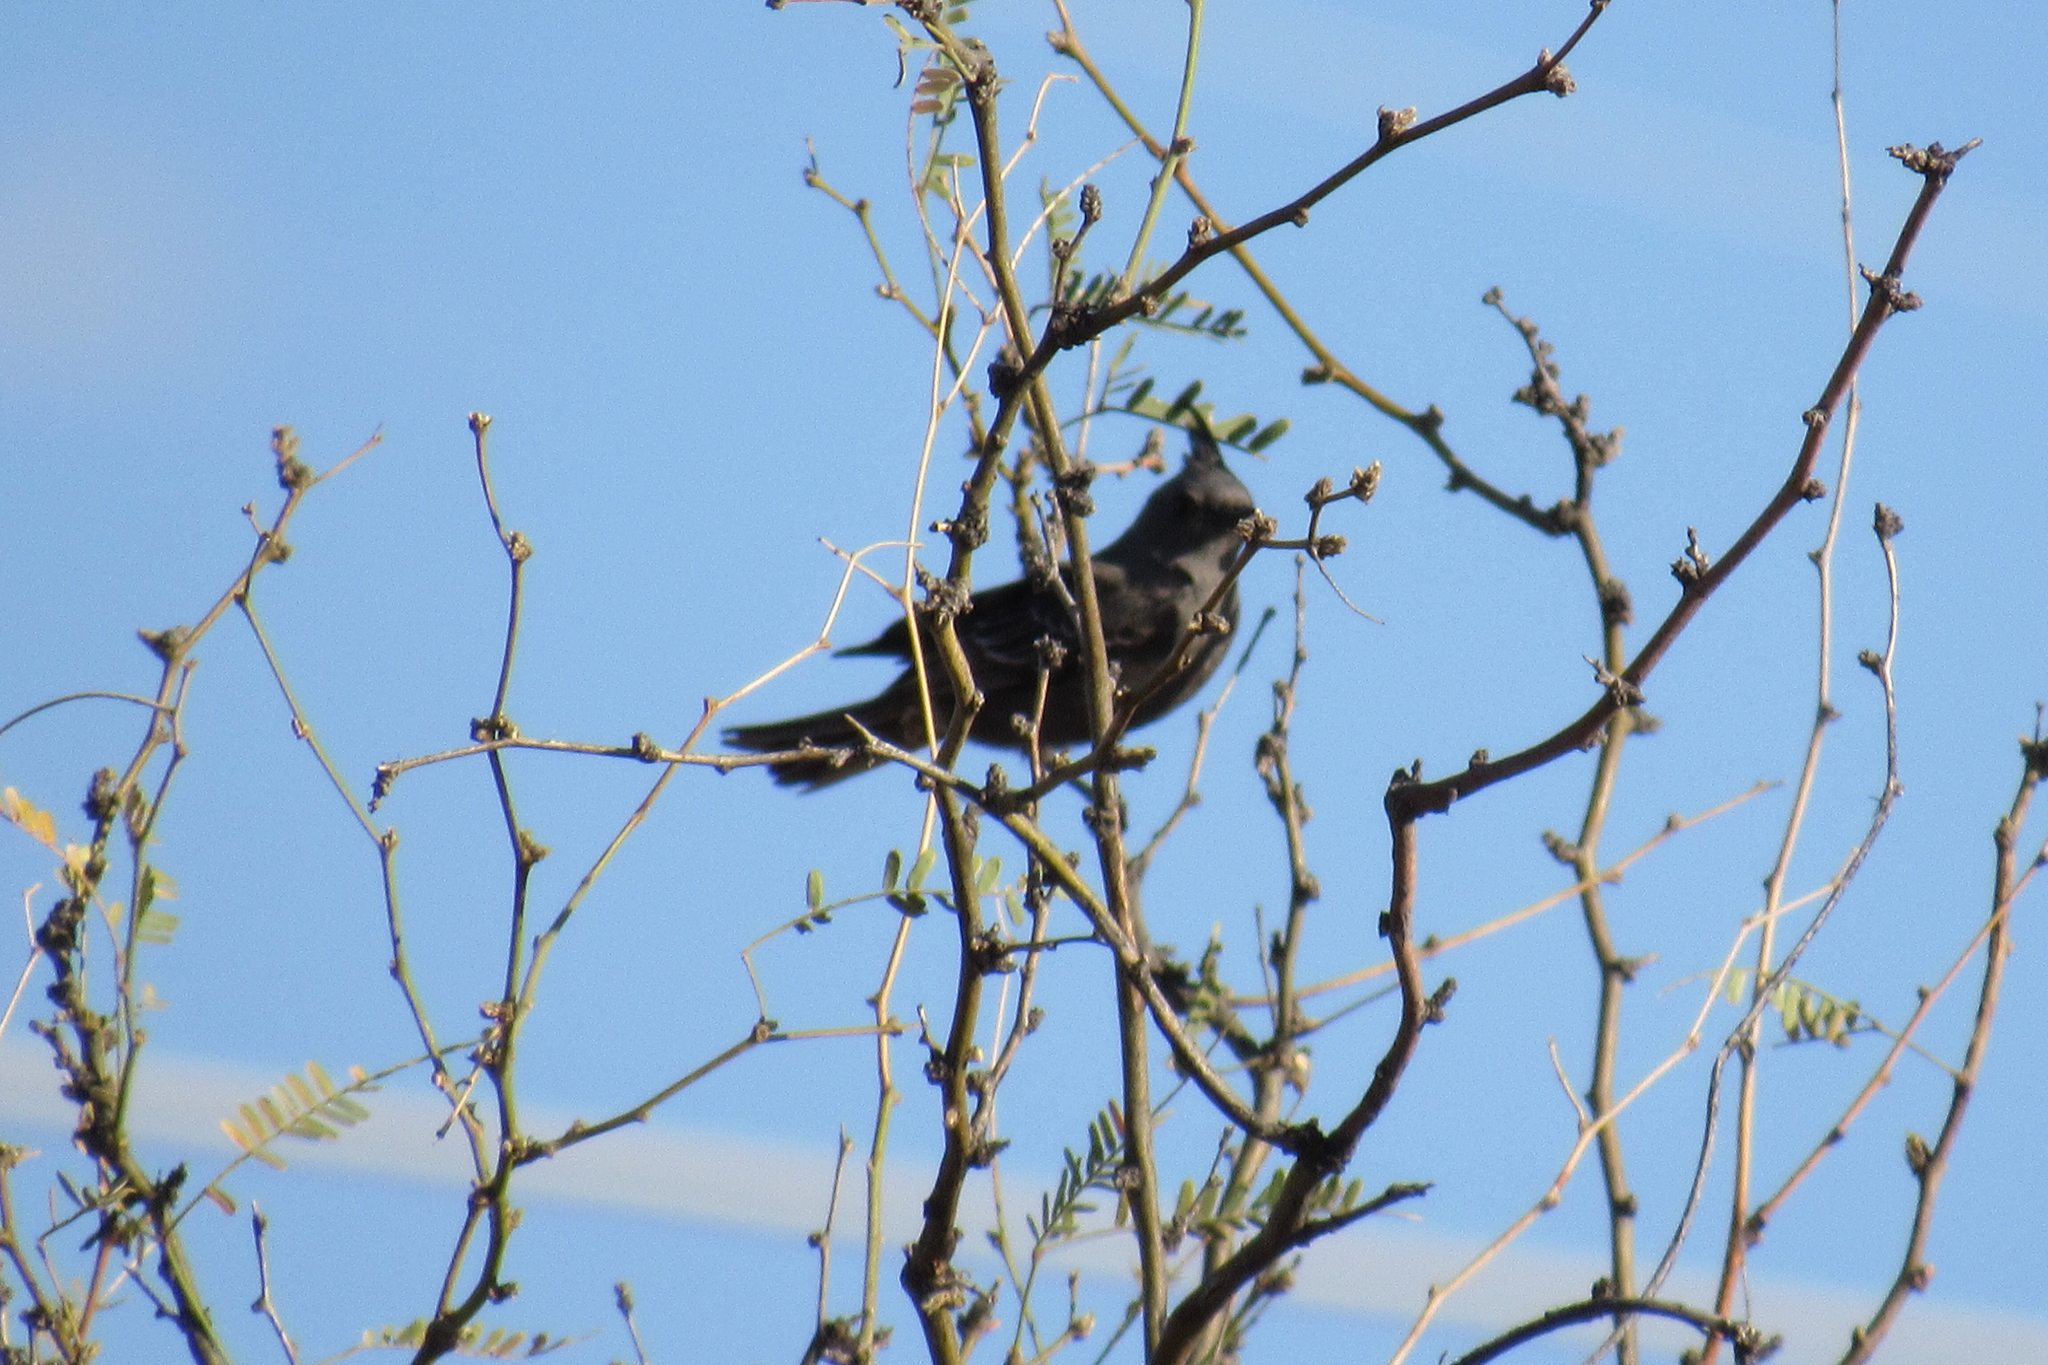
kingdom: Animalia
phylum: Chordata
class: Aves
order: Passeriformes
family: Ptilogonatidae
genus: Phainopepla
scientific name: Phainopepla nitens
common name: Phainopepla
